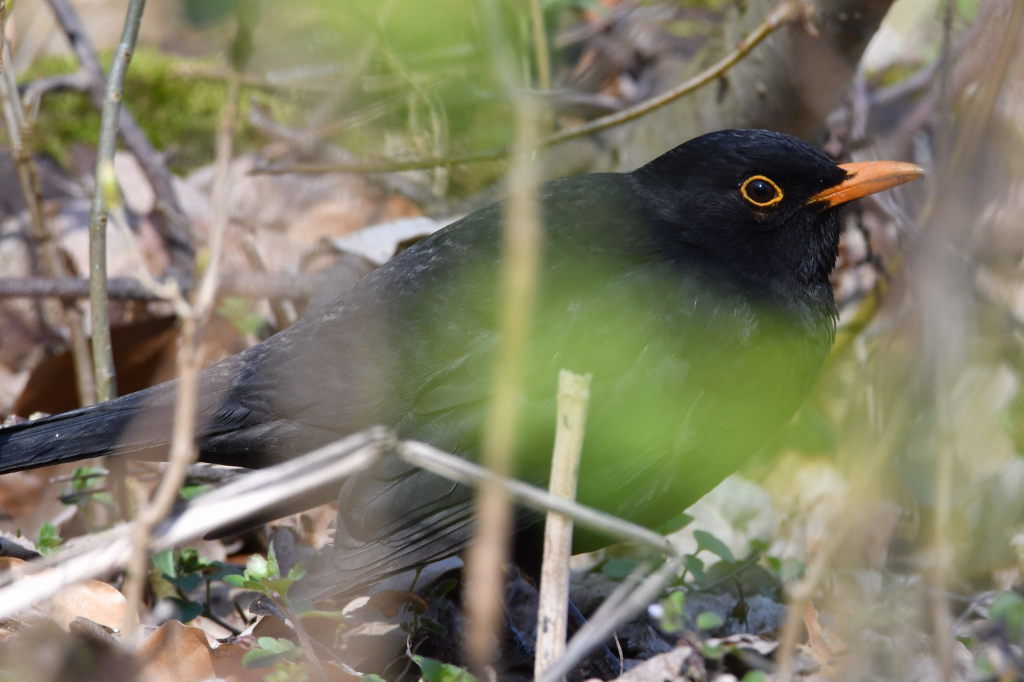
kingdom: Animalia
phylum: Chordata
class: Aves
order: Passeriformes
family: Turdidae
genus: Turdus
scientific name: Turdus merula
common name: Common blackbird
